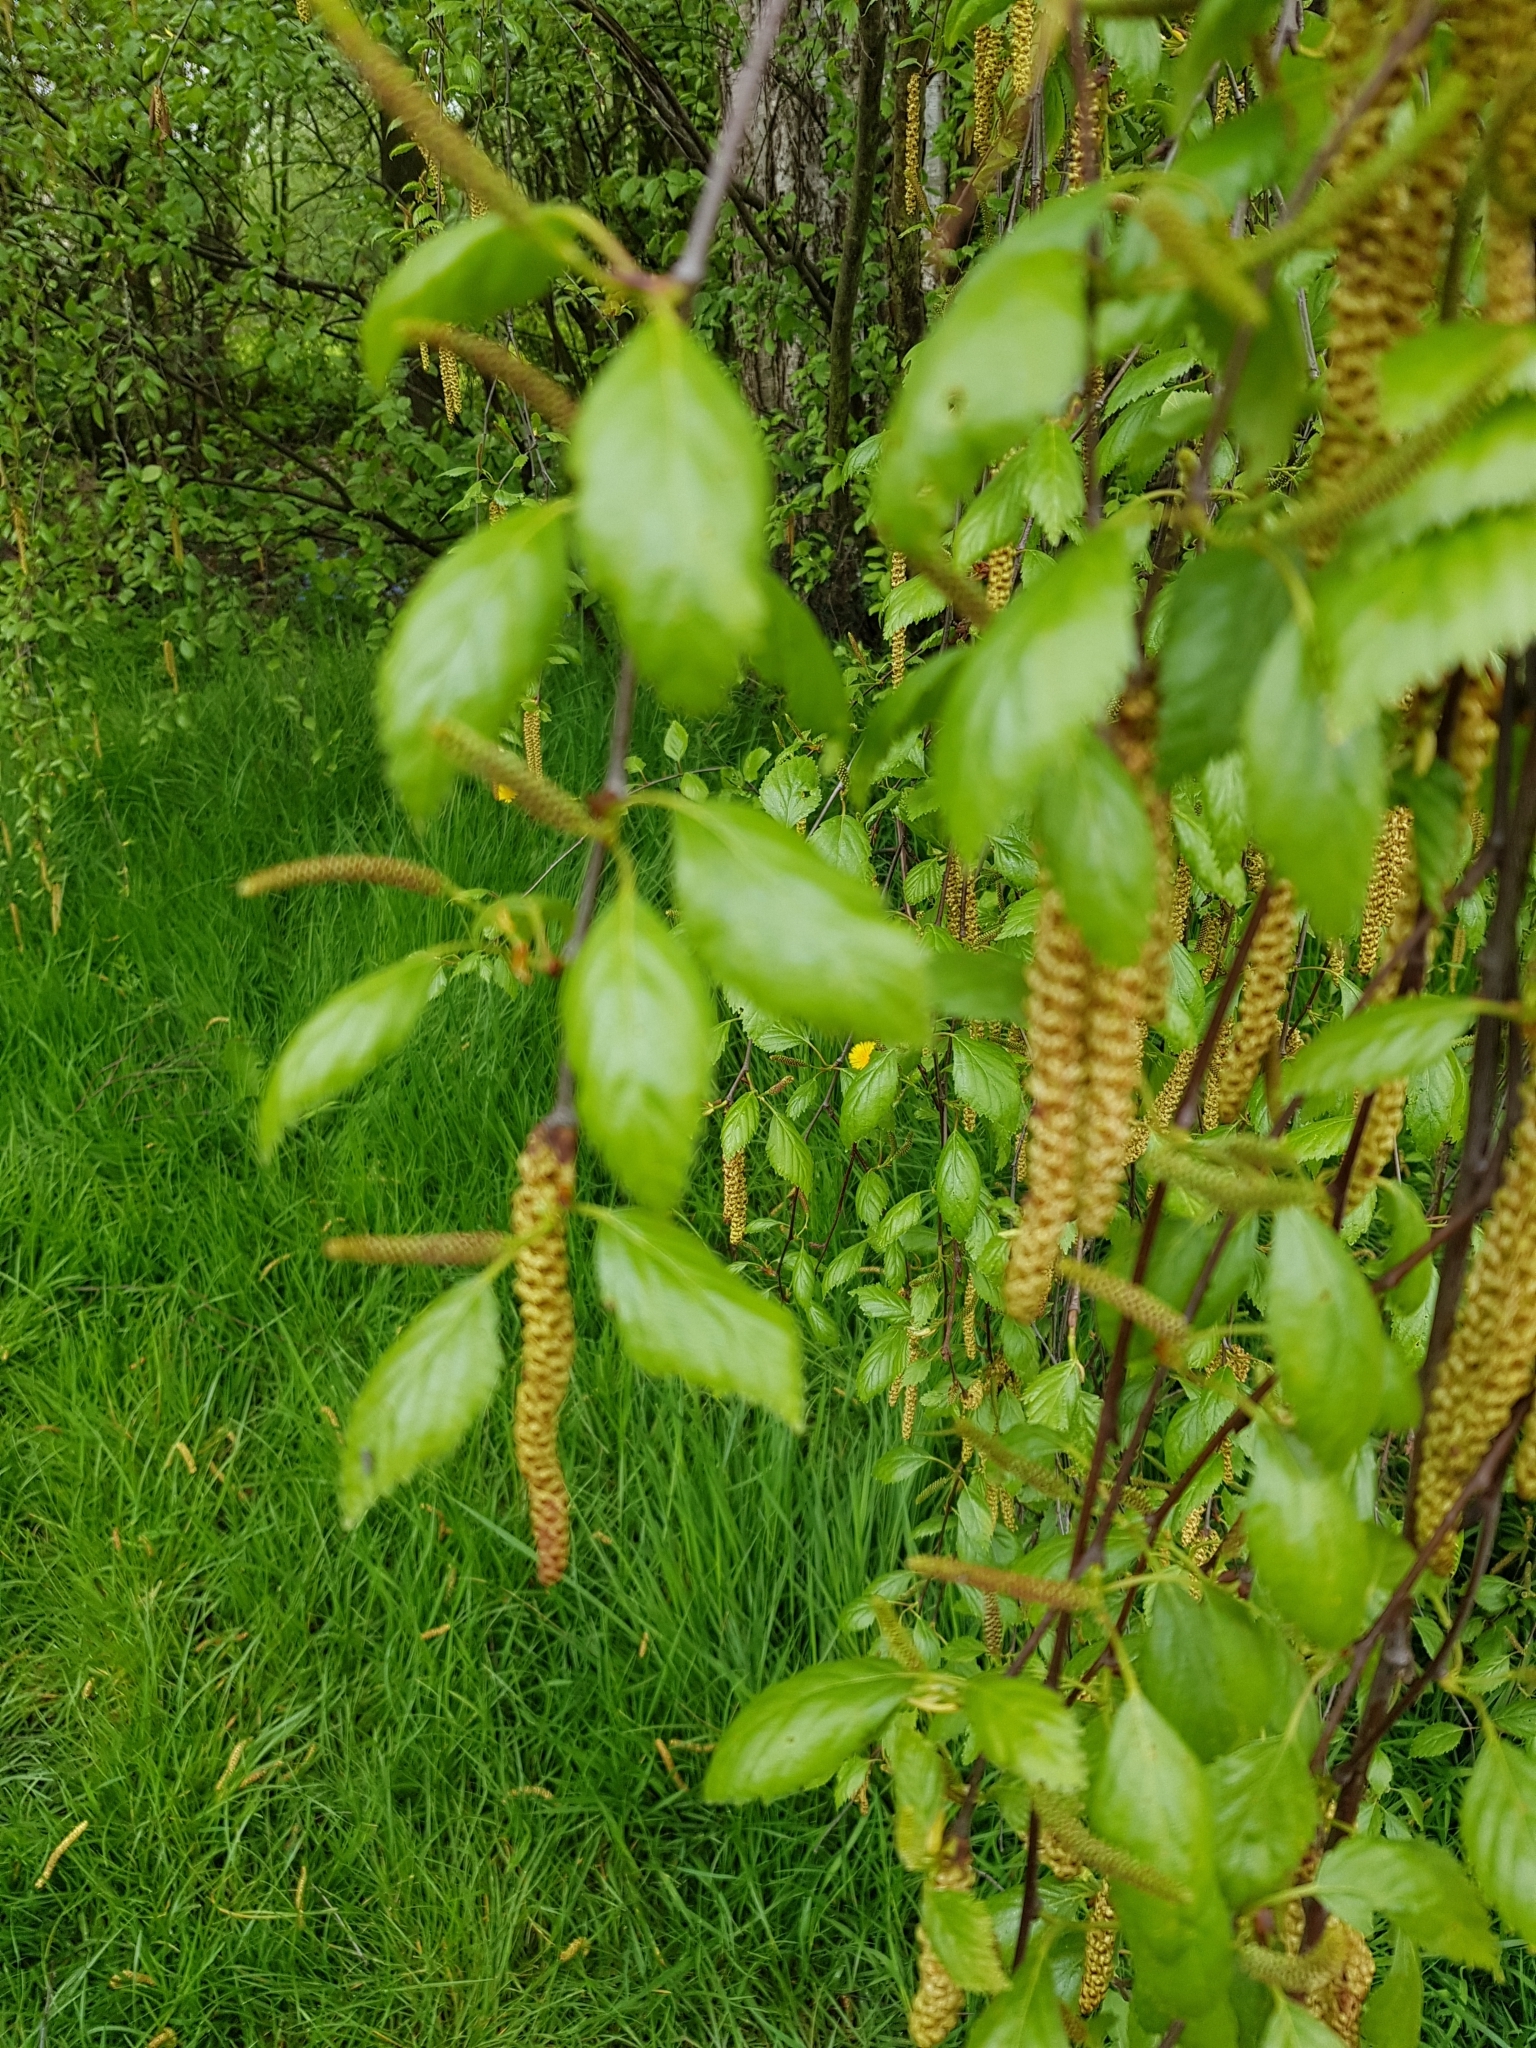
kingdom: Plantae
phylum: Tracheophyta
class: Magnoliopsida
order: Fagales
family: Betulaceae
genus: Betula
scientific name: Betula pendula
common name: Silver birch
